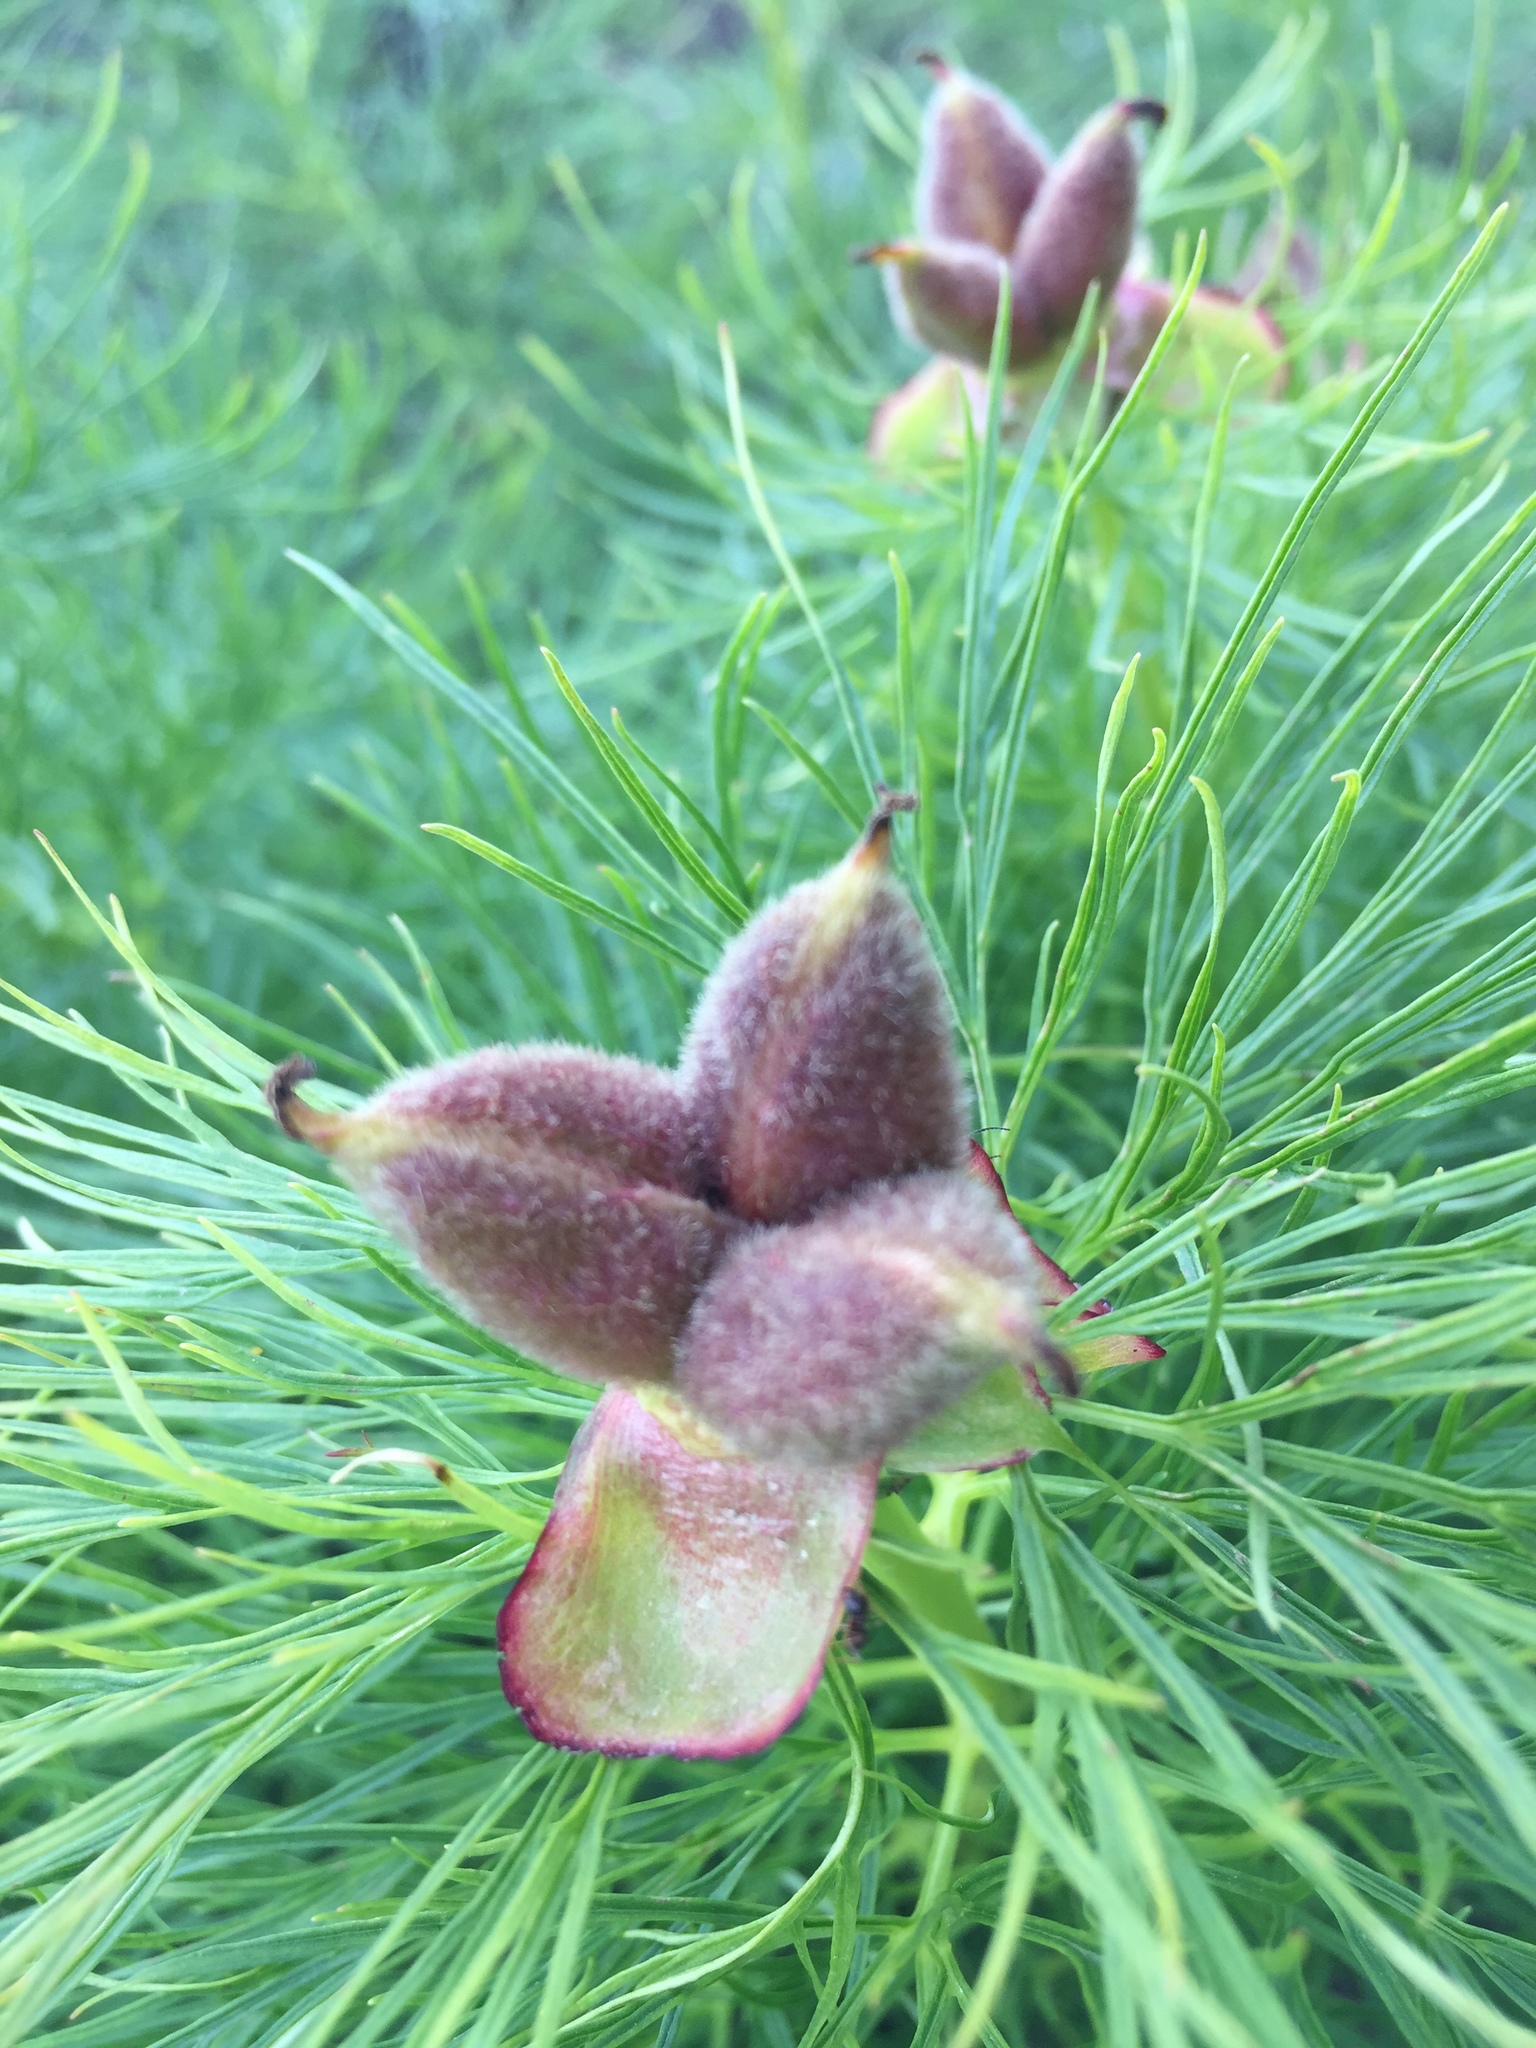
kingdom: Plantae
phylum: Tracheophyta
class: Magnoliopsida
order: Saxifragales
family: Paeoniaceae
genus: Paeonia
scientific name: Paeonia tenuifolia
